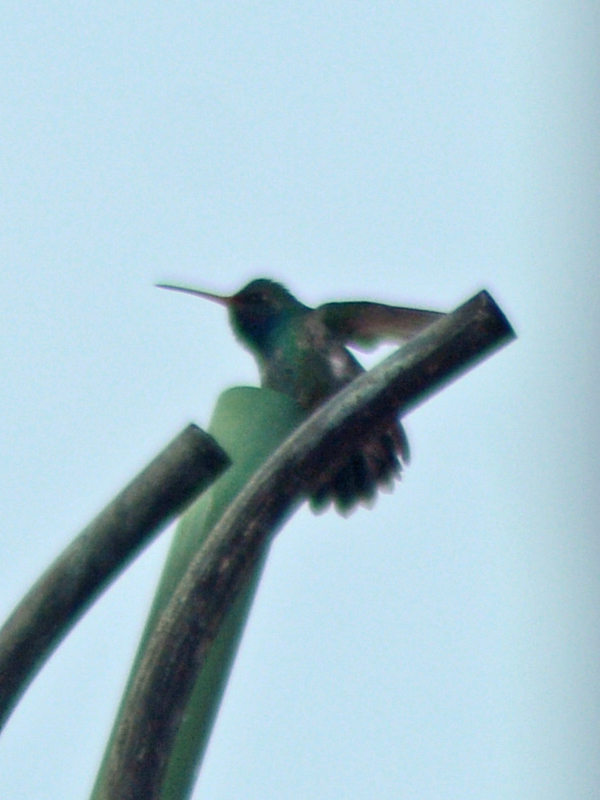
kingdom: Animalia
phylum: Chordata
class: Aves
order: Apodiformes
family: Trochilidae
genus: Cynanthus
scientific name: Cynanthus latirostris
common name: Broad-billed hummingbird
